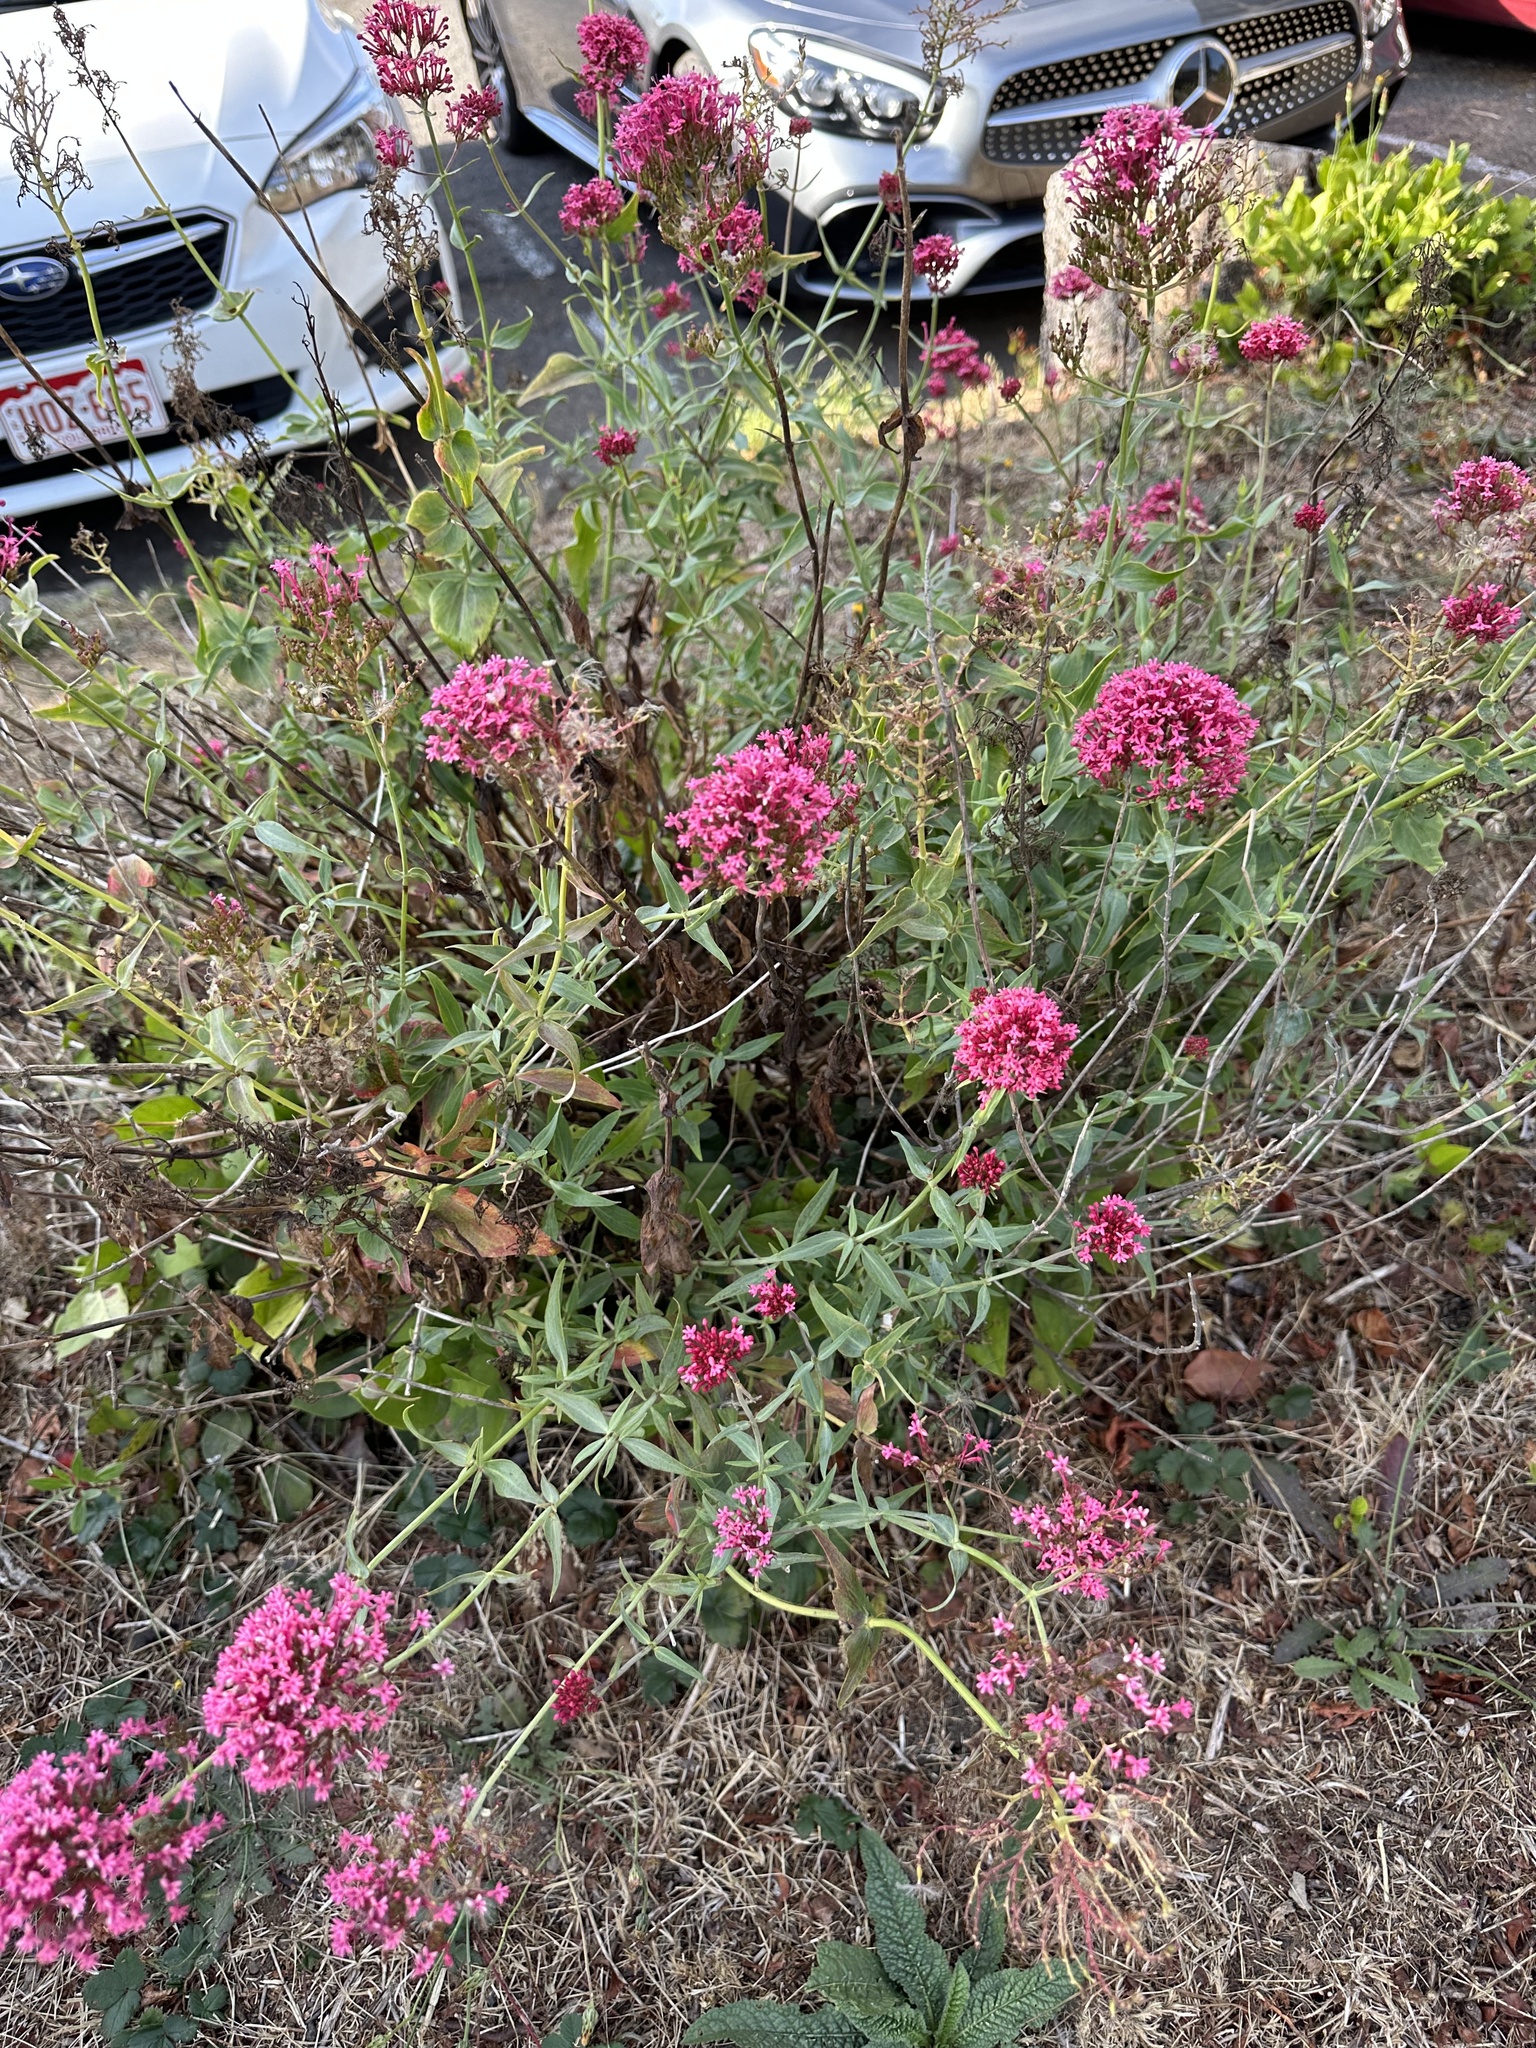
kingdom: Plantae
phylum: Tracheophyta
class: Magnoliopsida
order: Dipsacales
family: Caprifoliaceae
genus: Centranthus
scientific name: Centranthus ruber
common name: Red valerian
